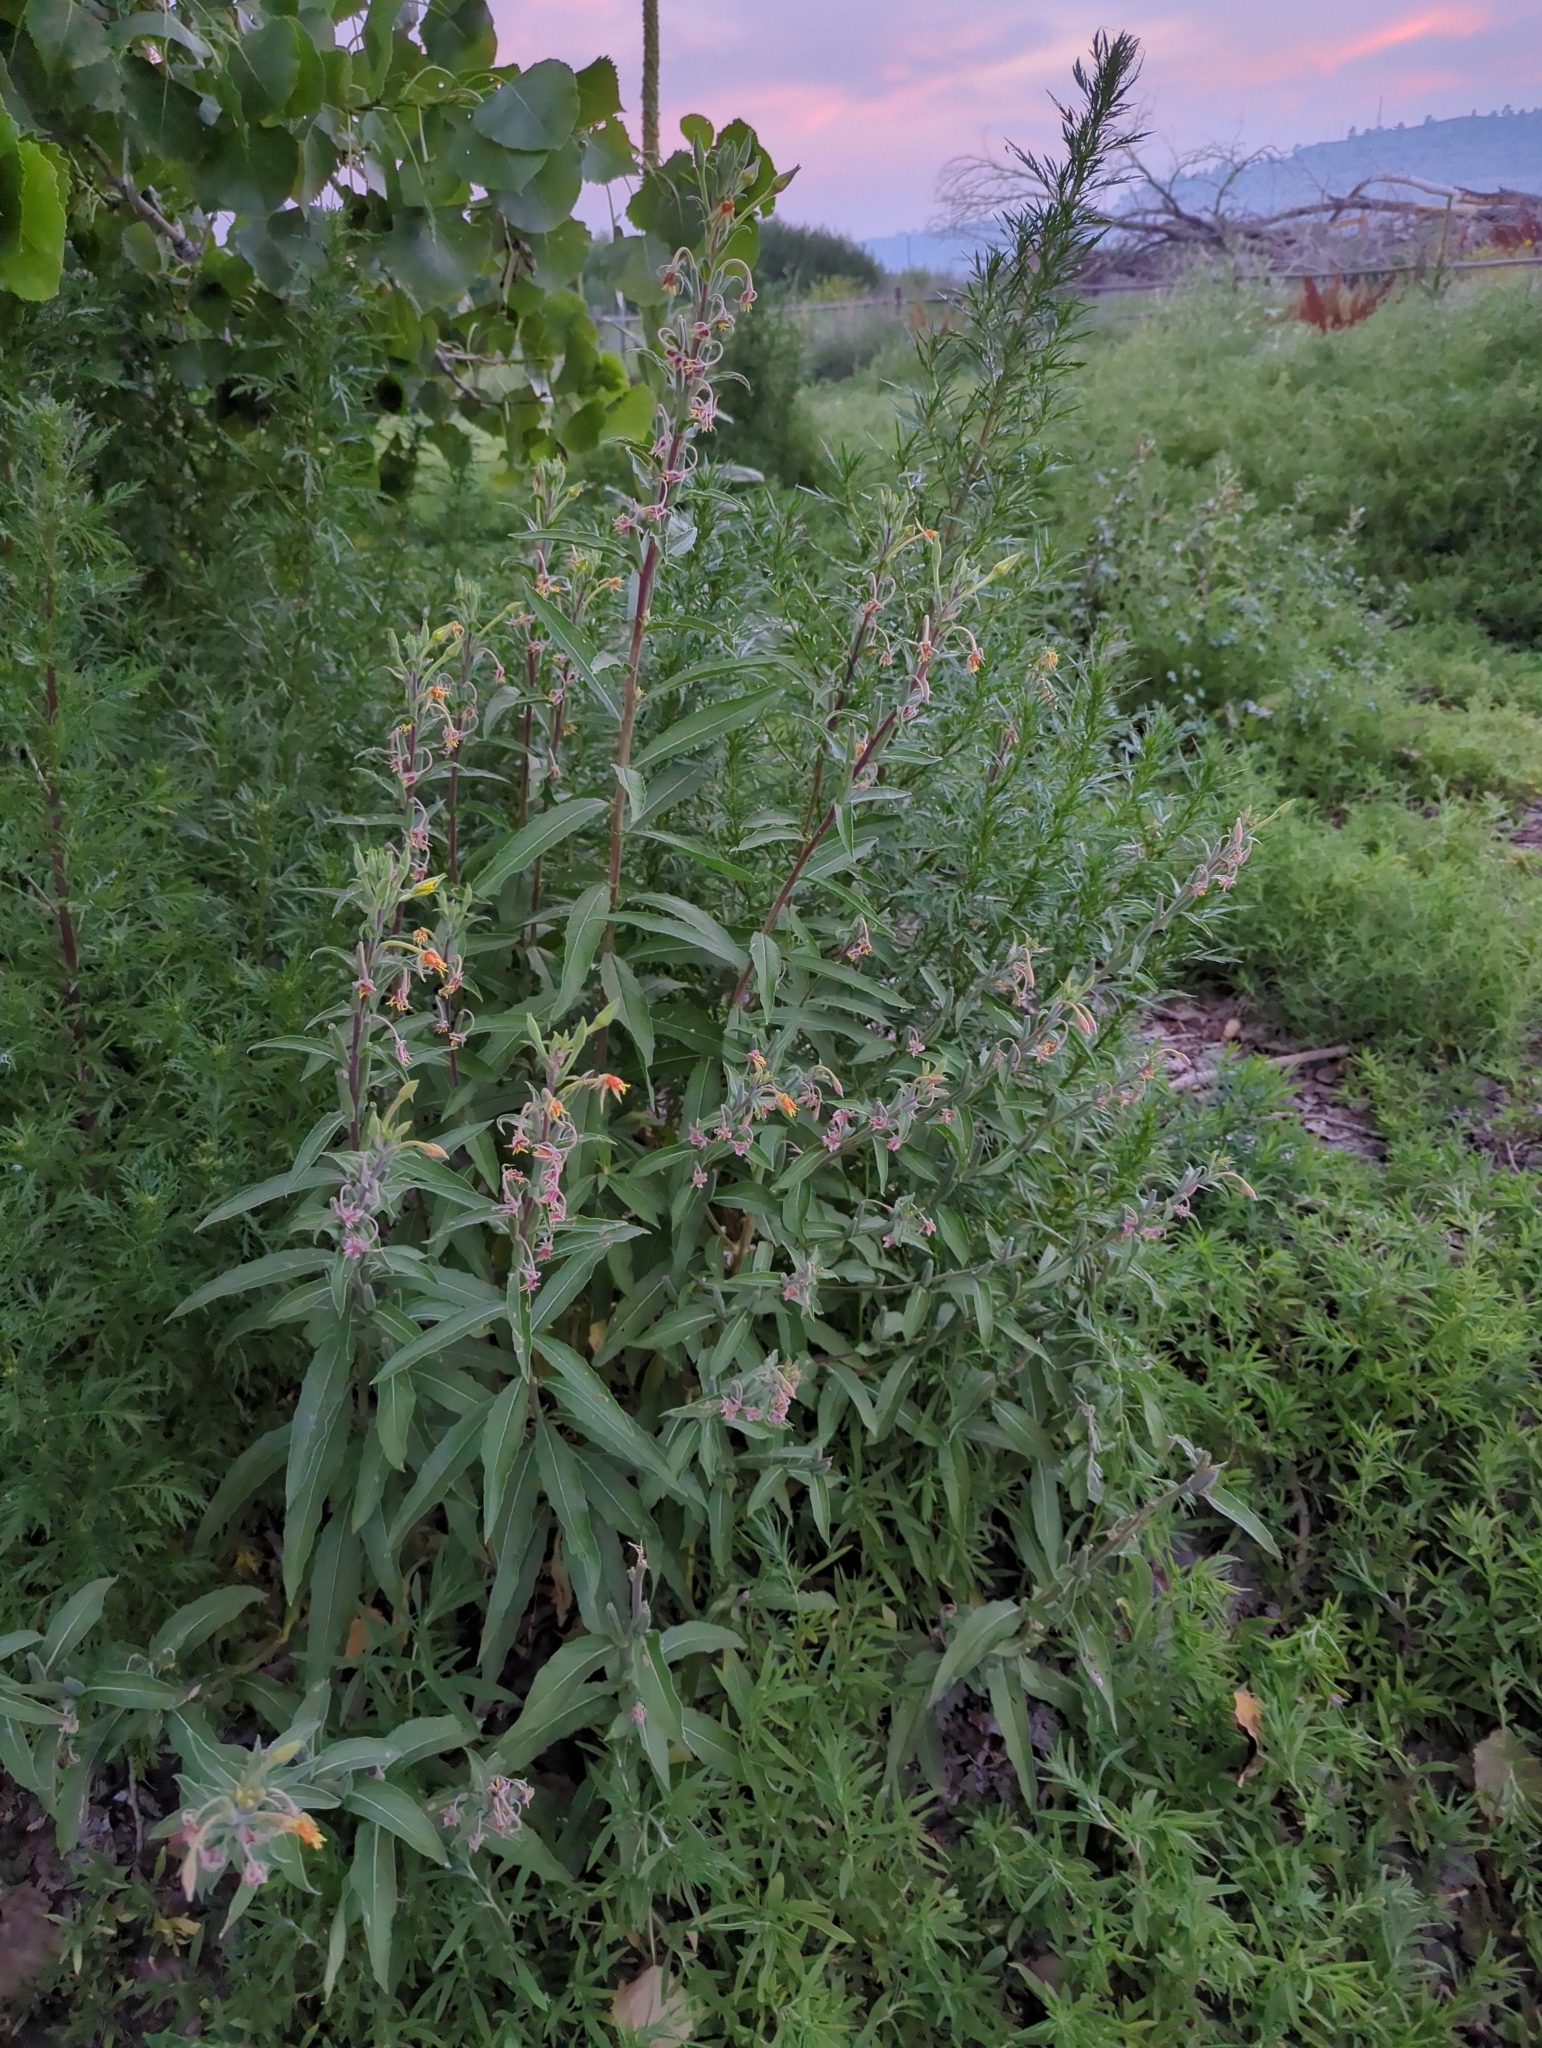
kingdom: Plantae
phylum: Tracheophyta
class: Magnoliopsida
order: Myrtales
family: Onagraceae
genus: Oenothera
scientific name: Oenothera villosa
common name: Hairy evening-primrose
